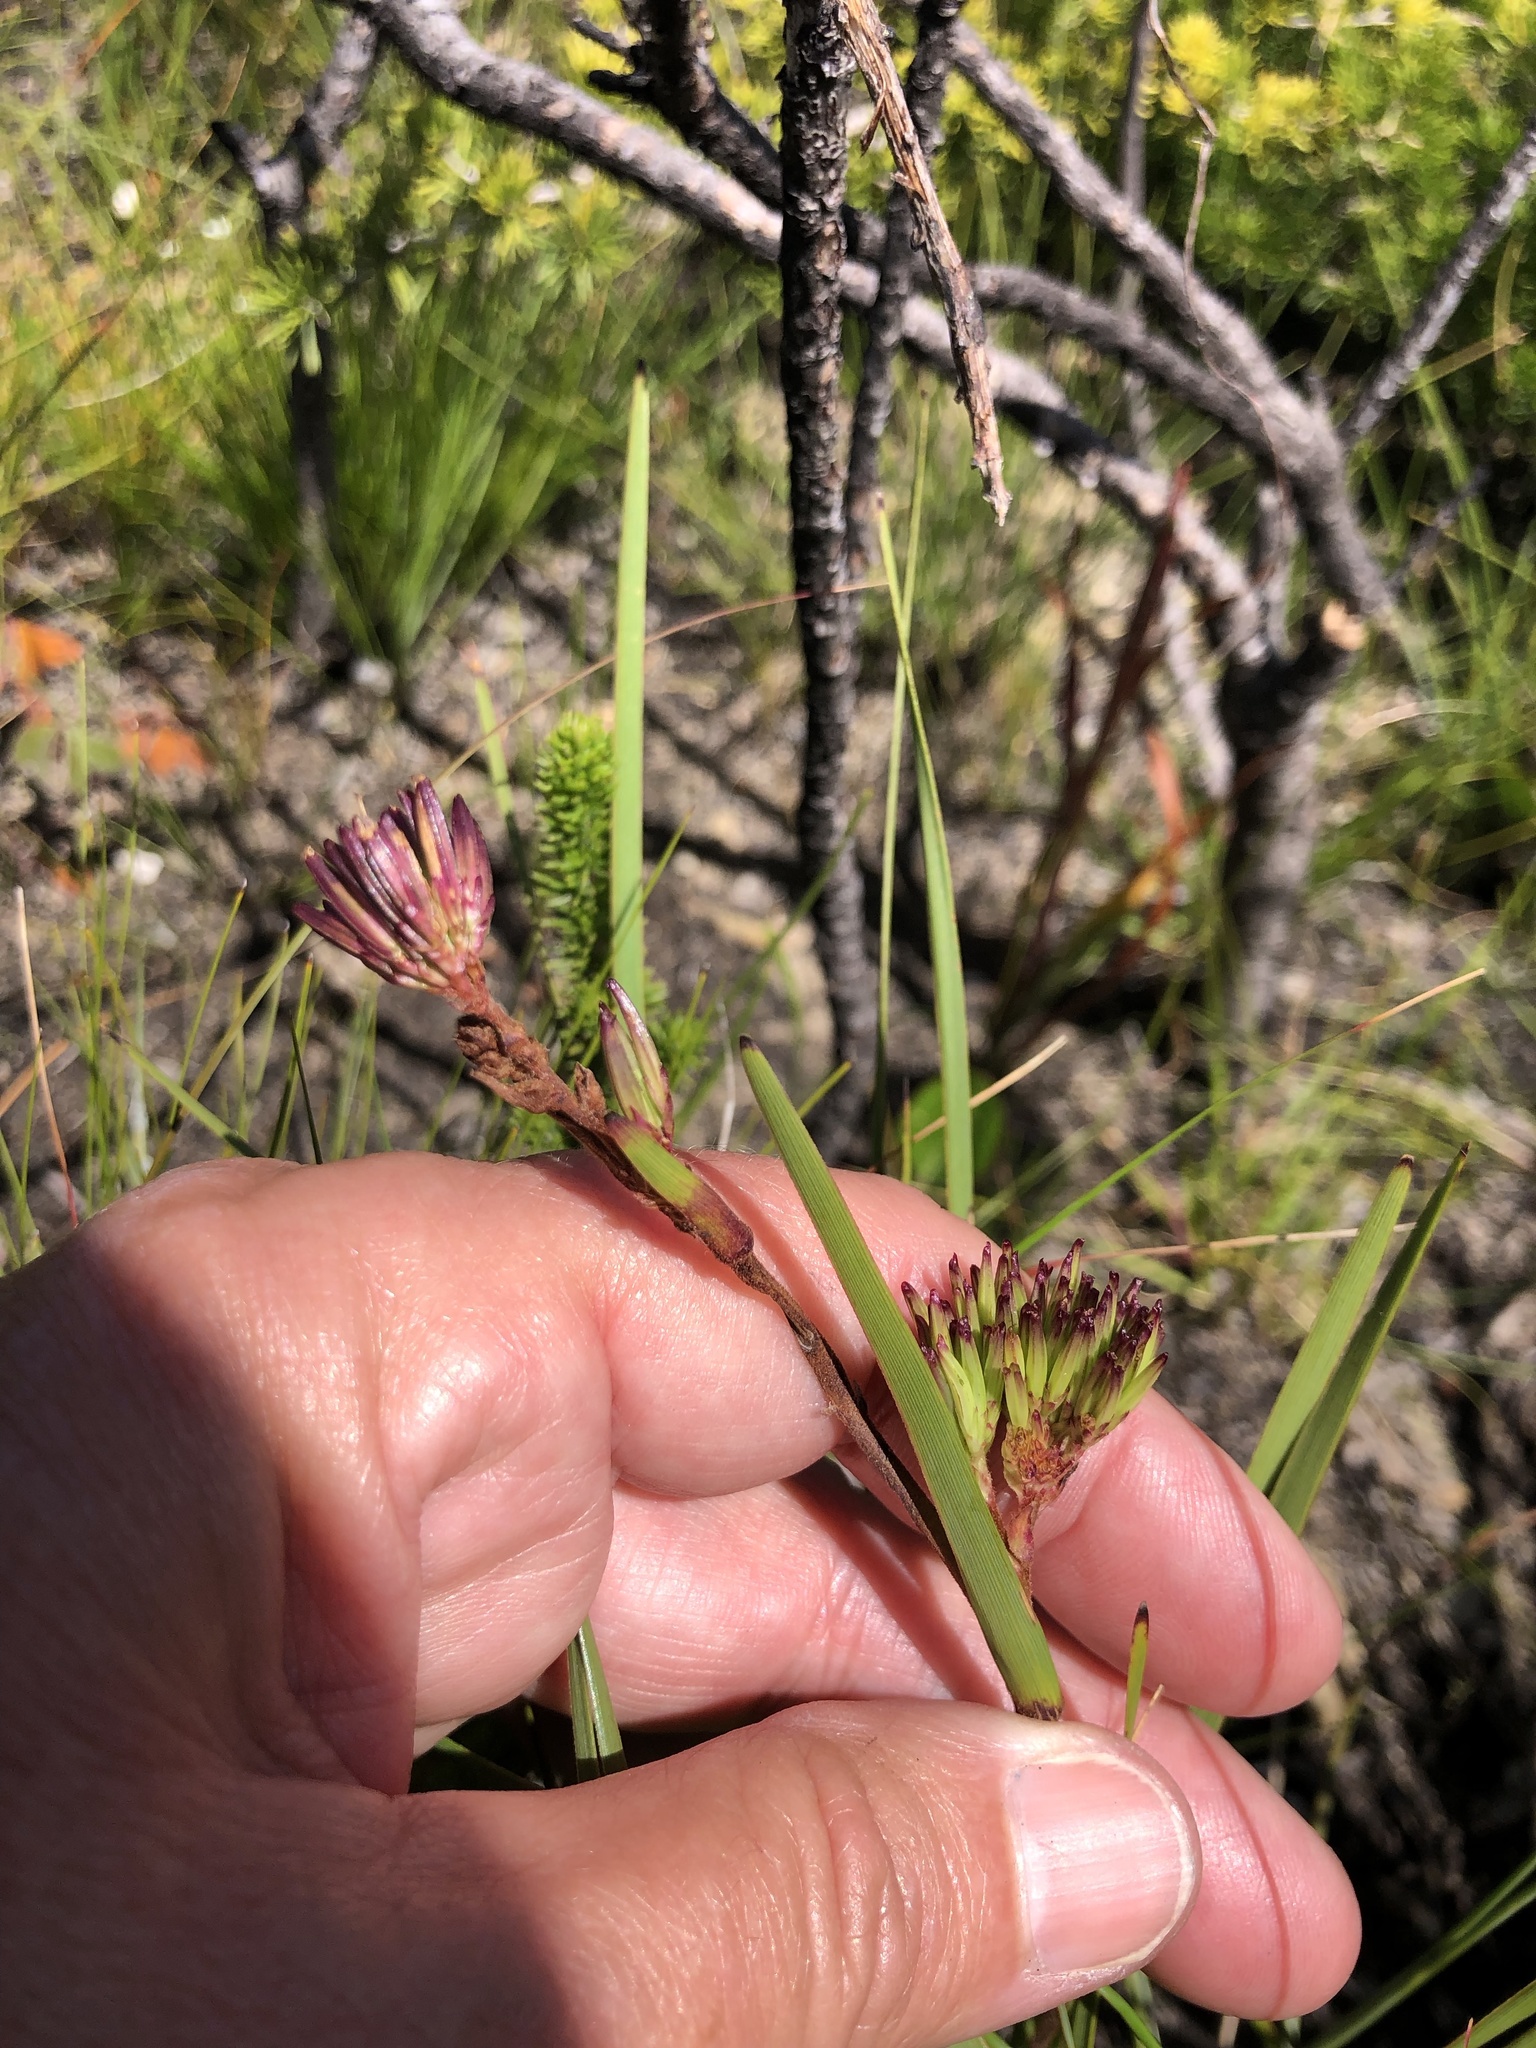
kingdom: Plantae
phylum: Tracheophyta
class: Magnoliopsida
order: Asterales
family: Asteraceae
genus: Corymbium
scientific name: Corymbium glabrum
